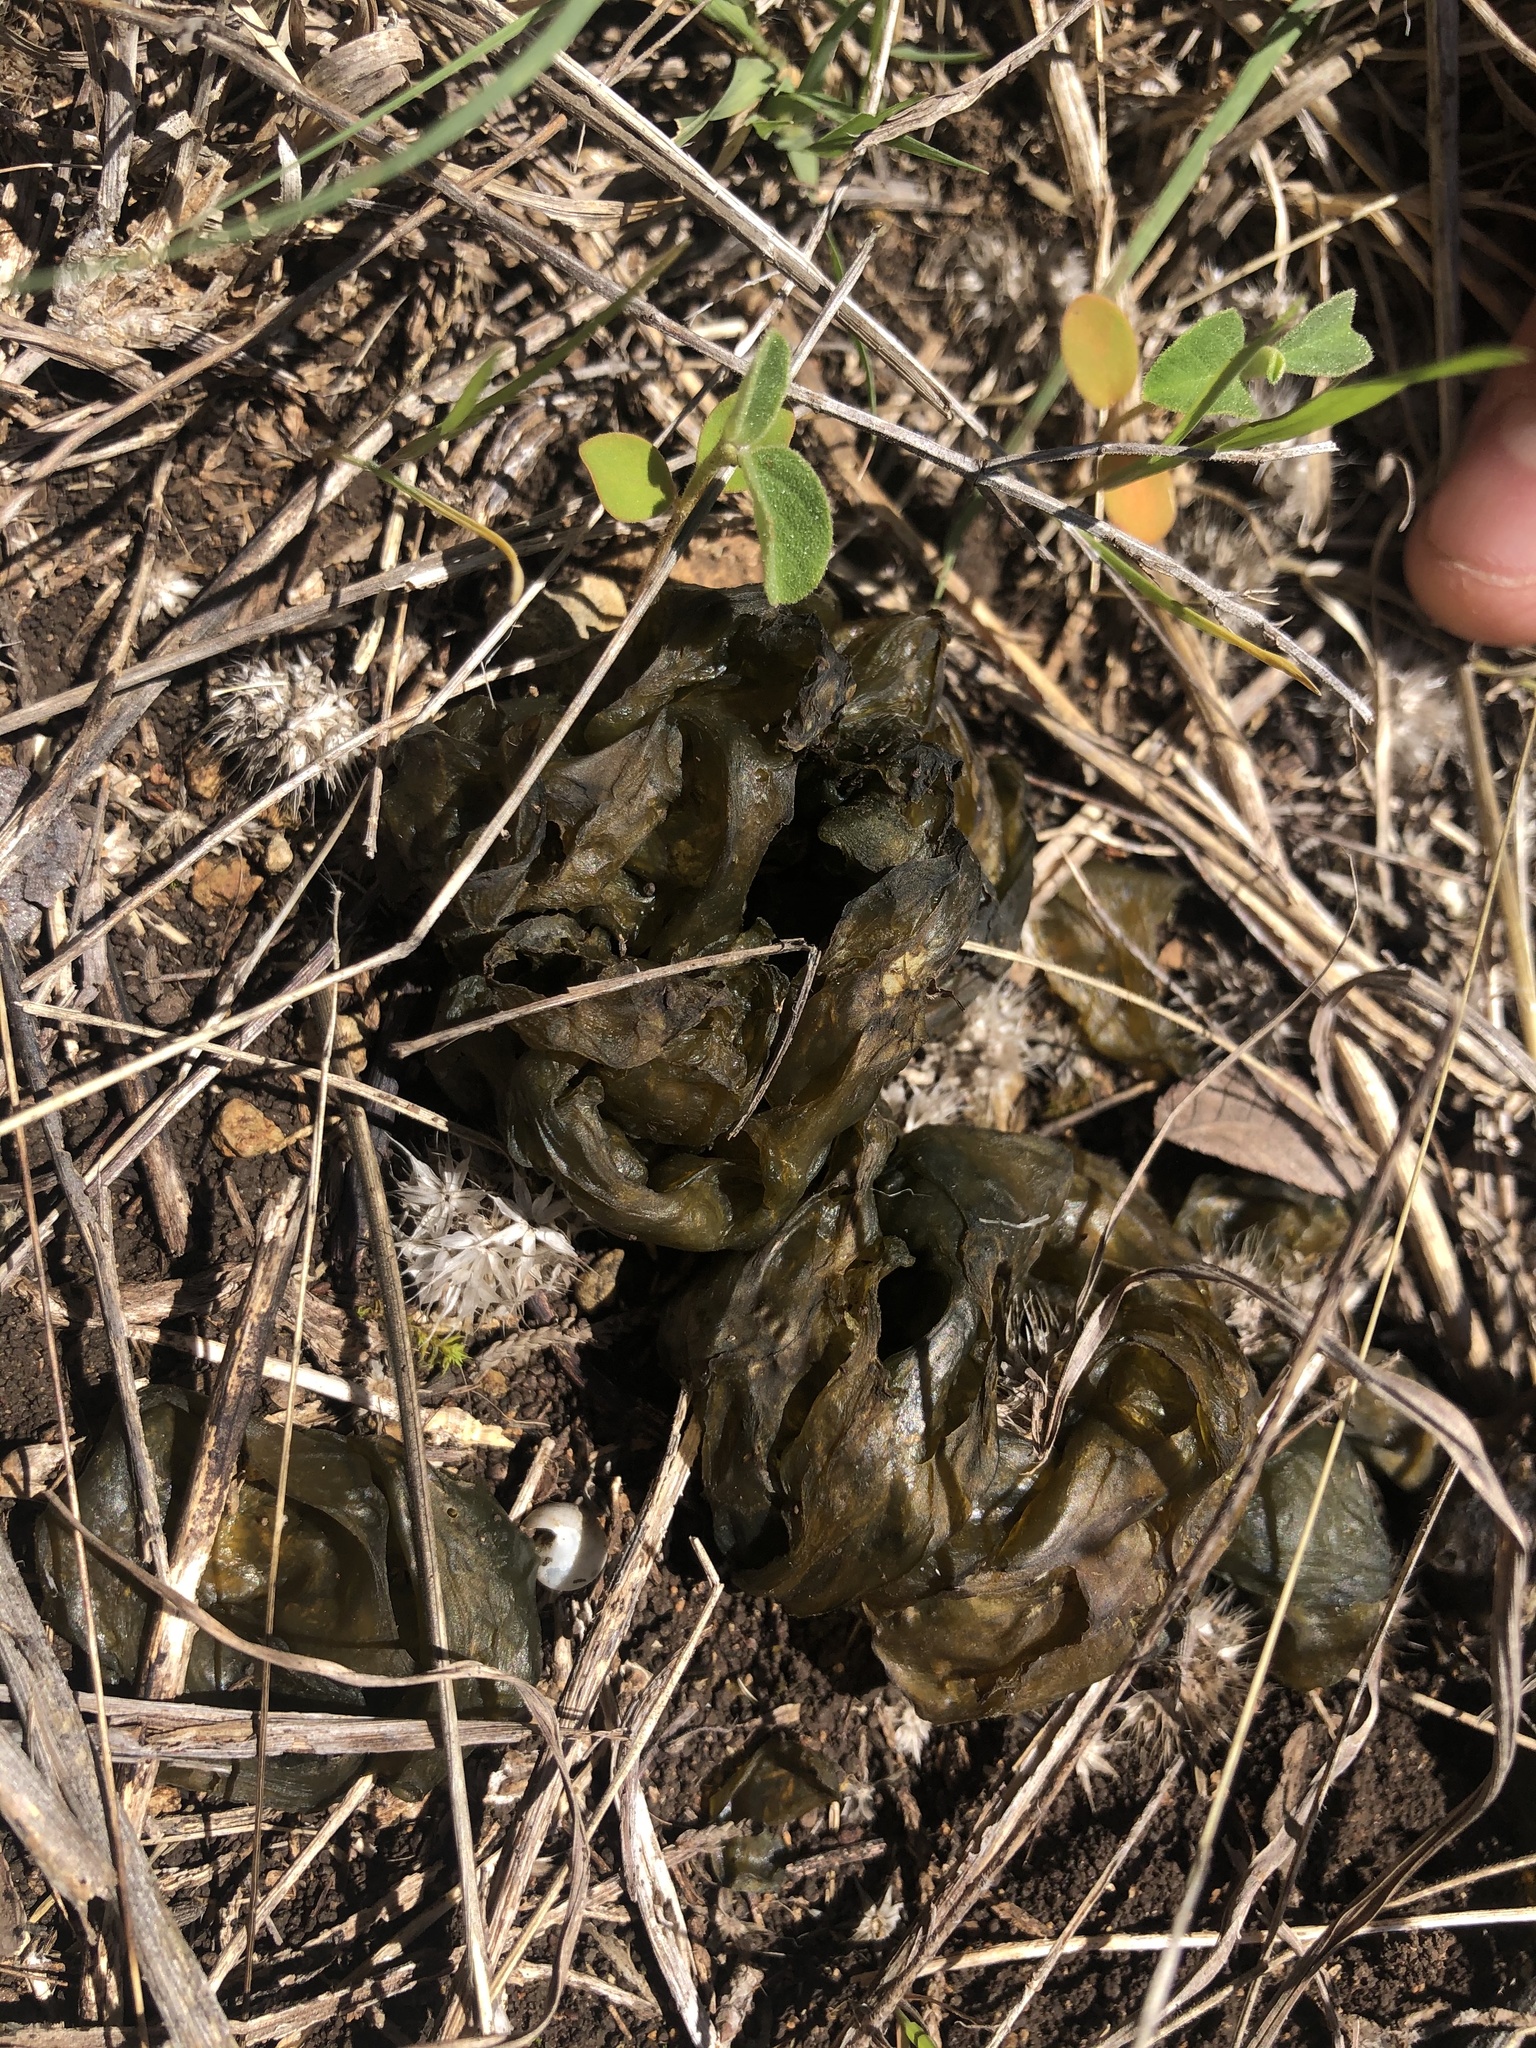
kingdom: Bacteria
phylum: Cyanobacteria
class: Cyanobacteriia
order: Cyanobacteriales
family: Nostocaceae
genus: Nostoc
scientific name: Nostoc commune
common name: Star jelly
